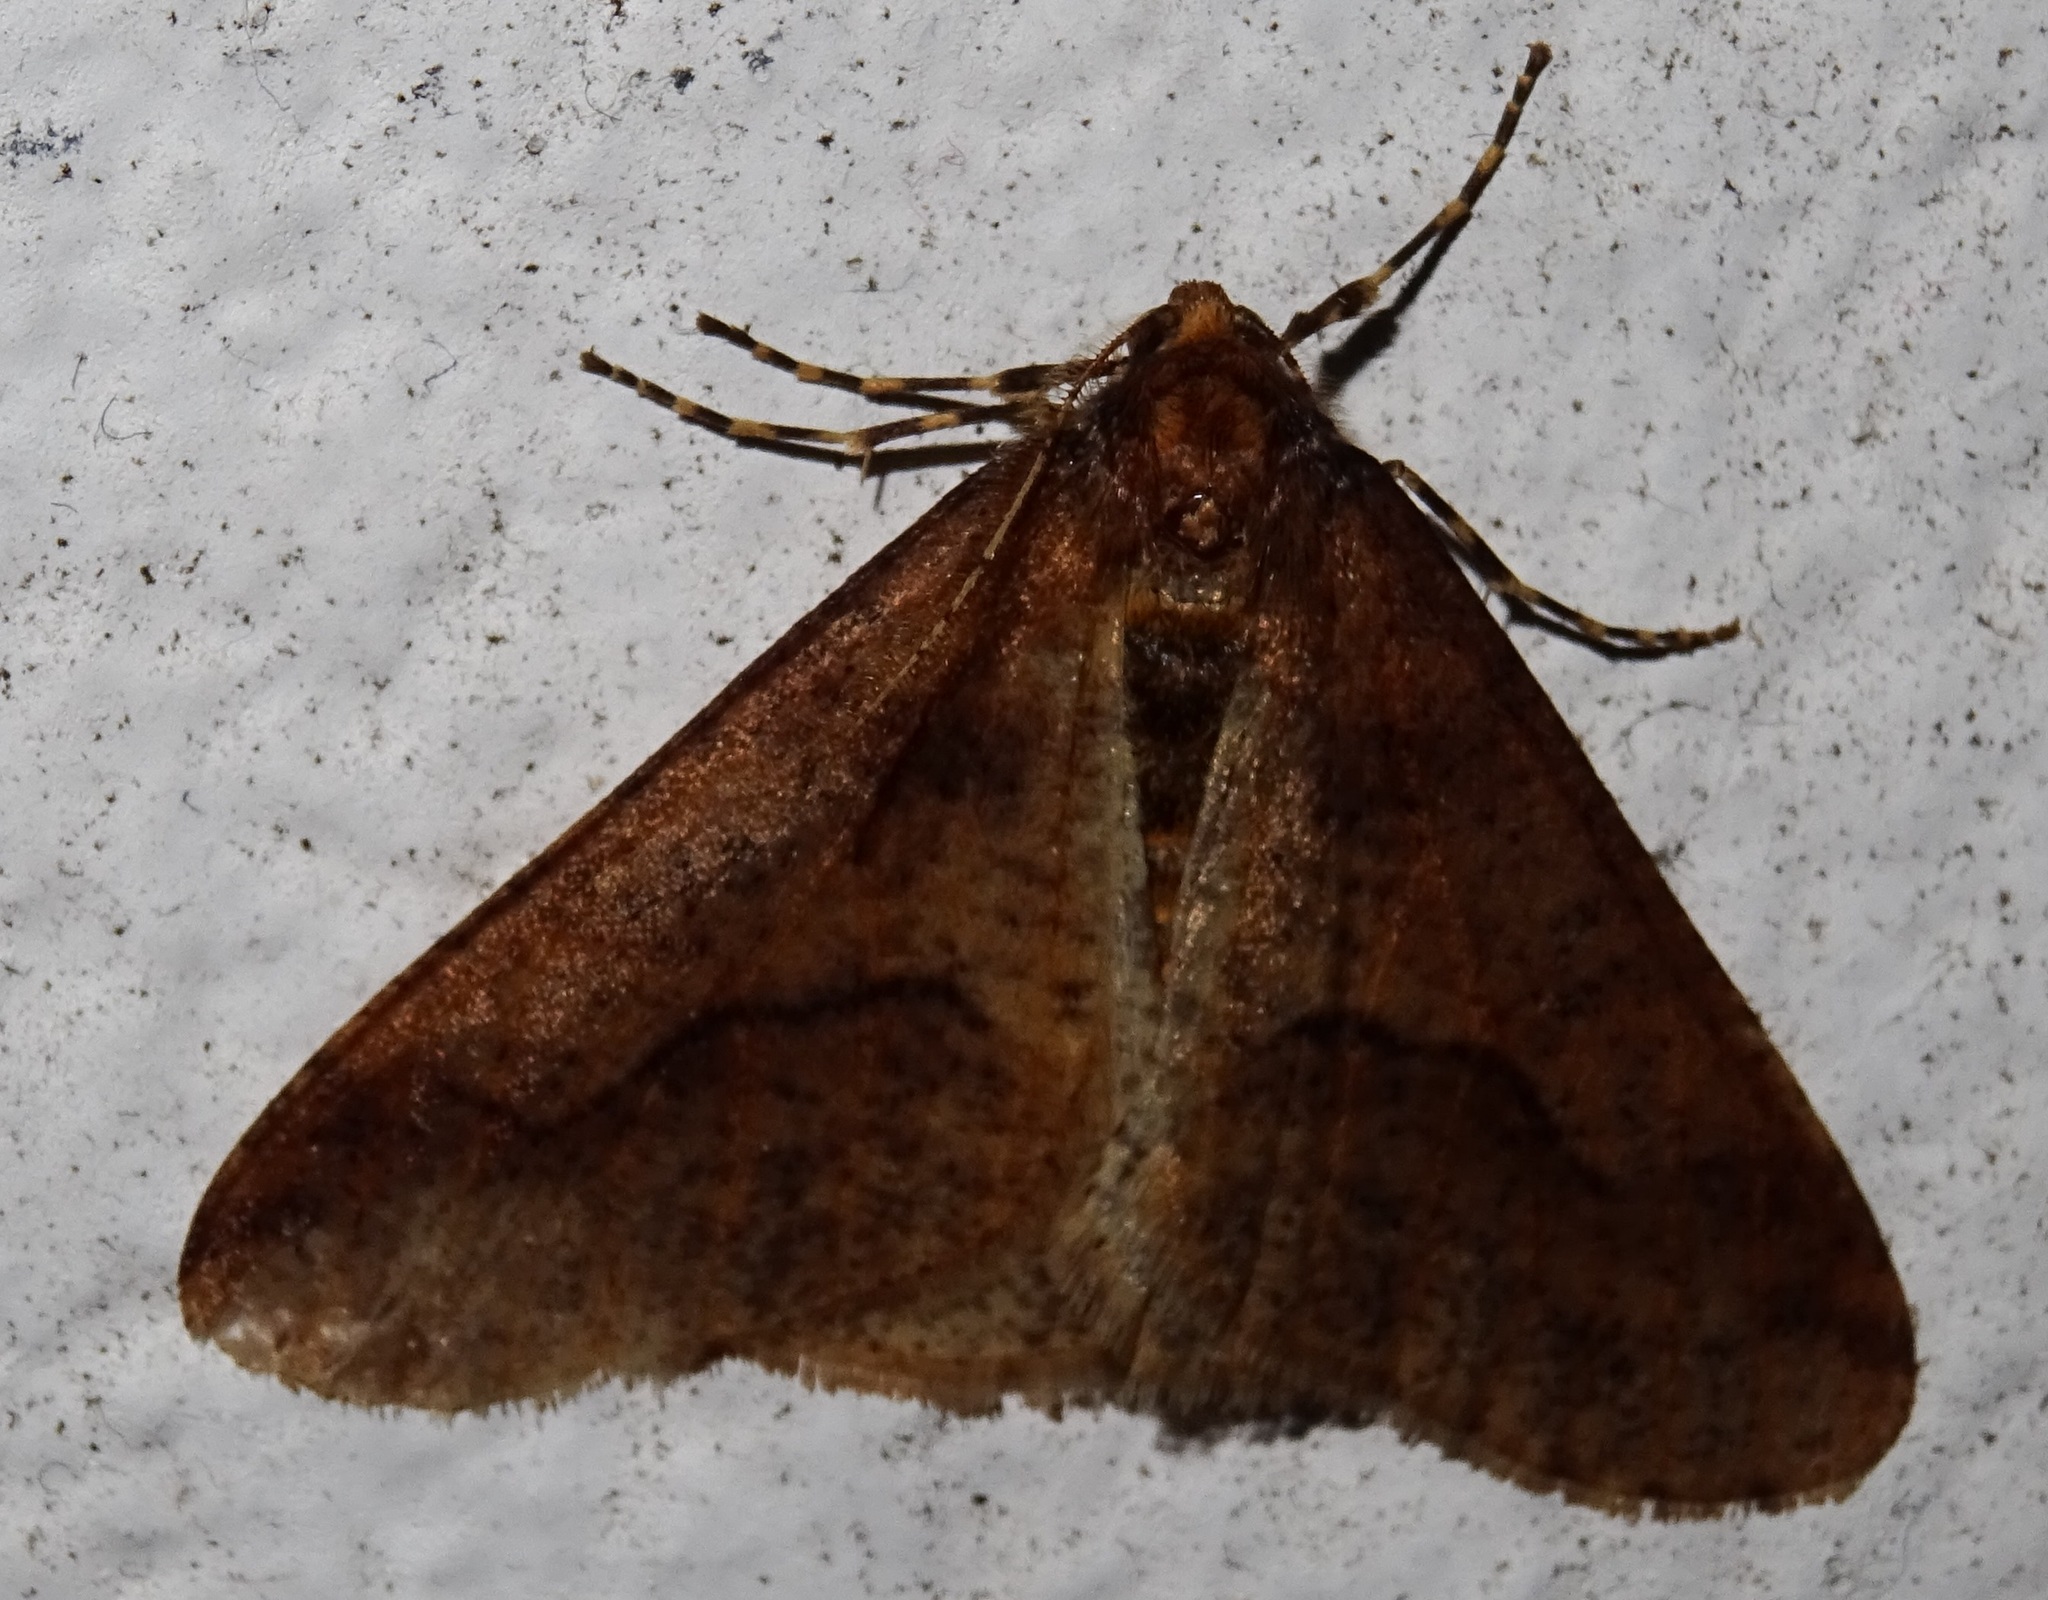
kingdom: Animalia
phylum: Arthropoda
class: Insecta
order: Lepidoptera
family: Geometridae
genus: Erannis
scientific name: Erannis defoliaria
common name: Mottled umber
